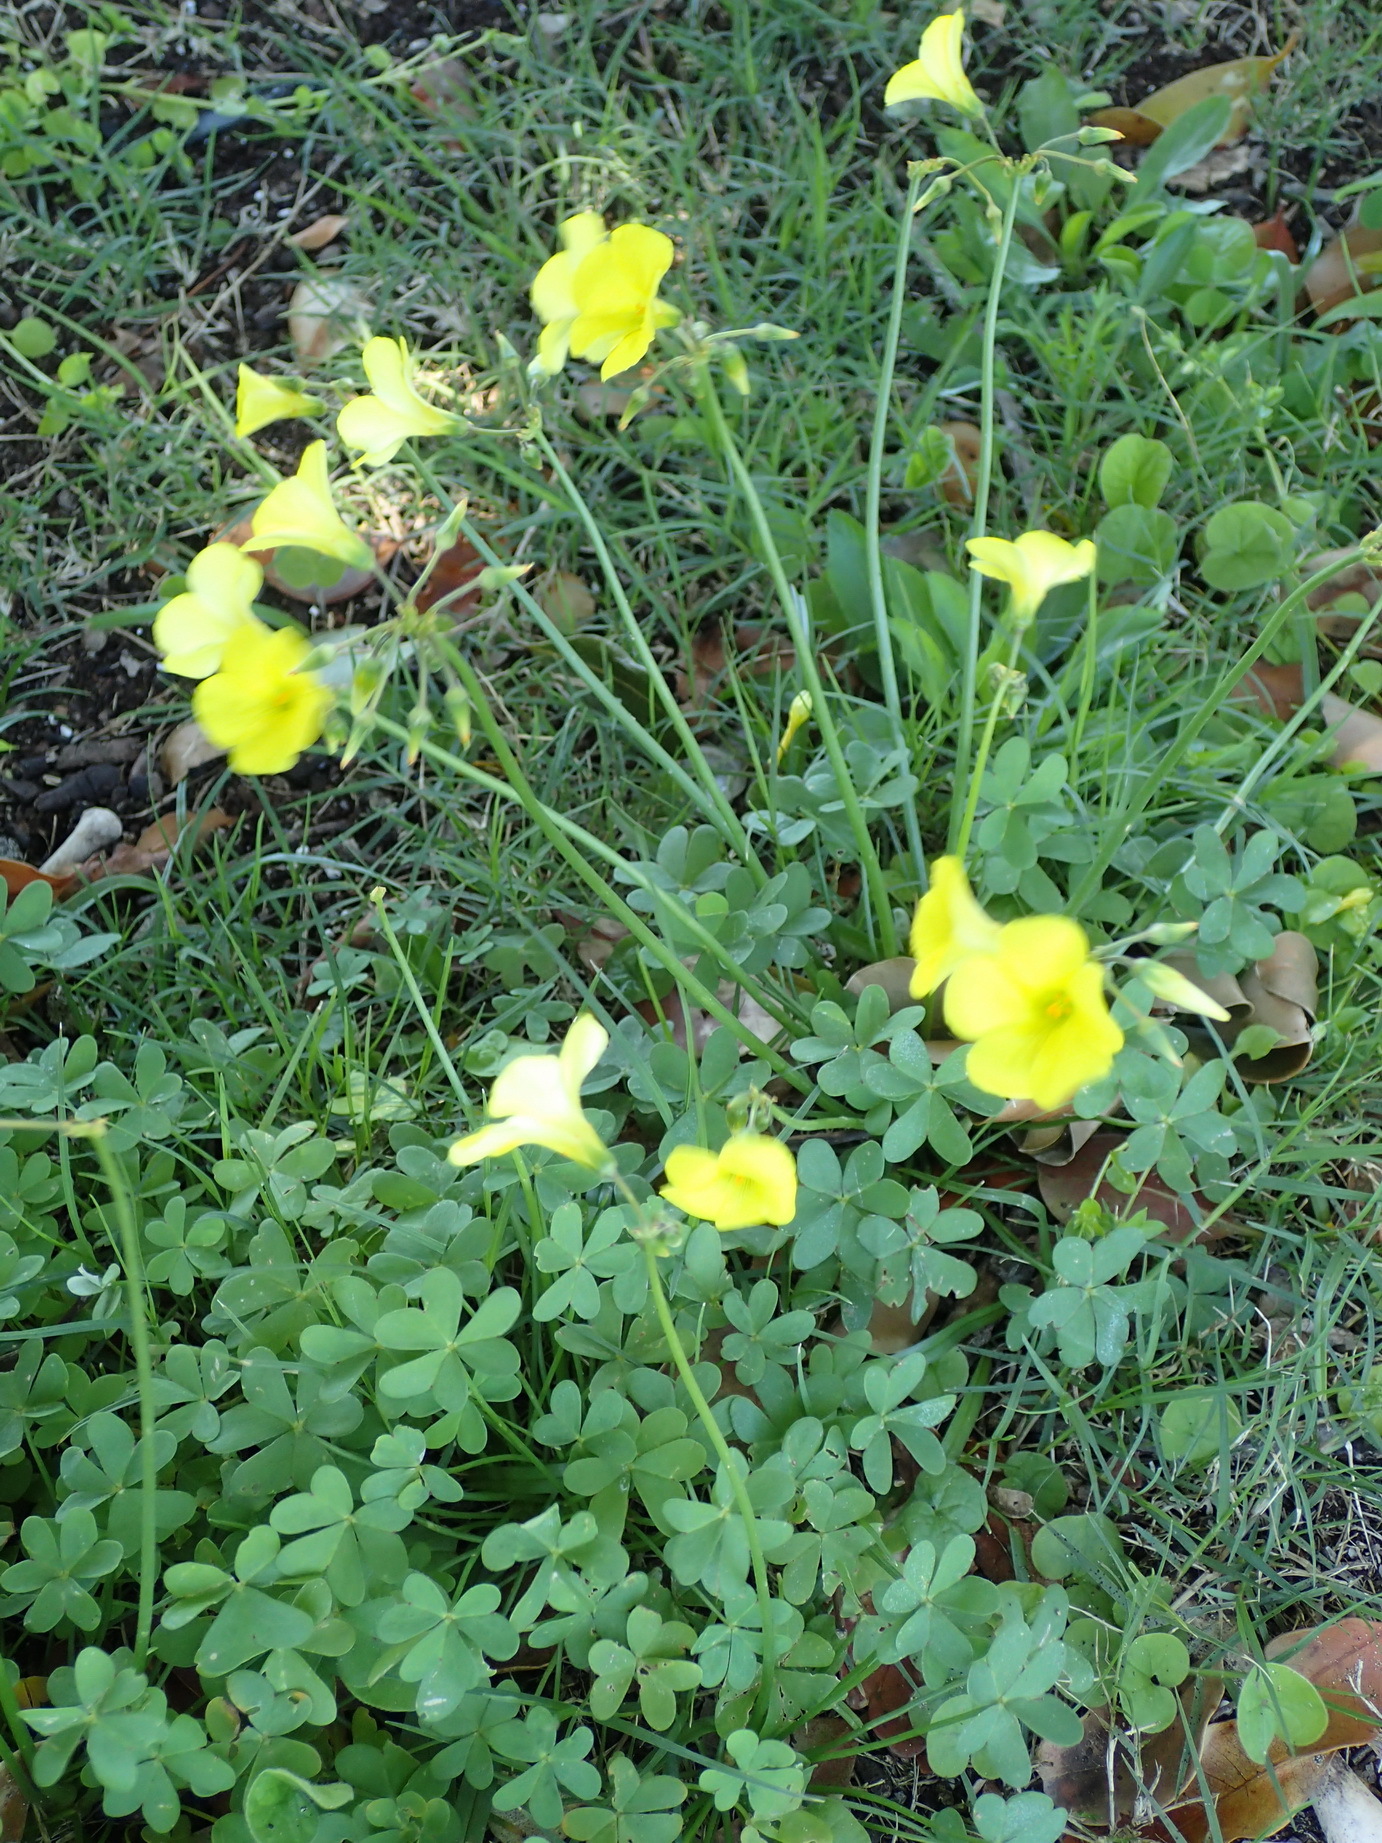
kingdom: Plantae
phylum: Tracheophyta
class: Magnoliopsida
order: Oxalidales
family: Oxalidaceae
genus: Oxalis
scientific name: Oxalis pes-caprae
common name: Bermuda-buttercup
